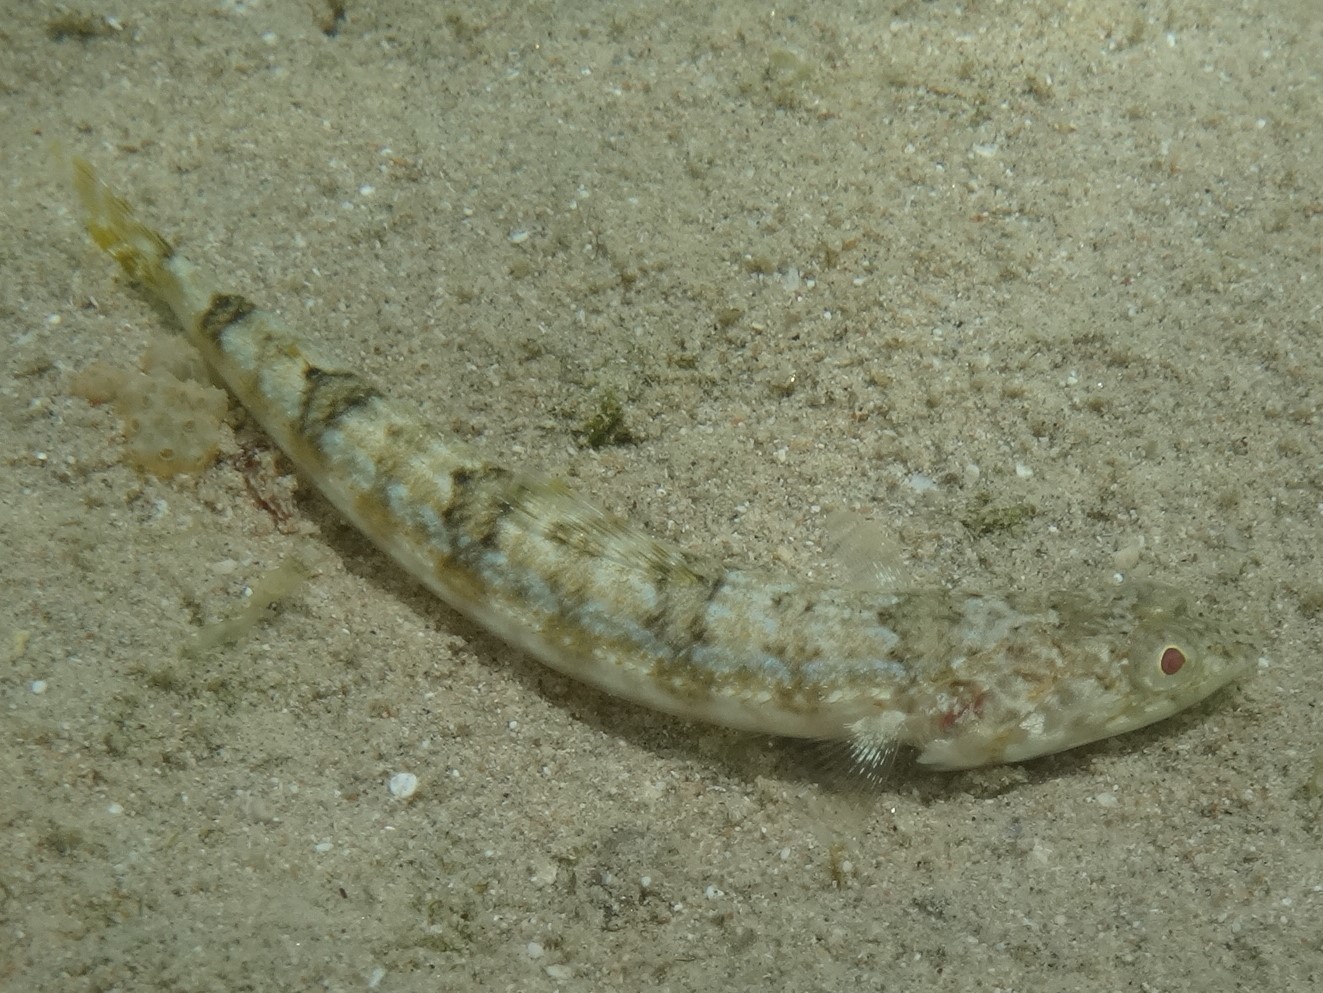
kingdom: Animalia
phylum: Chordata
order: Aulopiformes
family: Synodontidae
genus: Synodus
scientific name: Synodus variegatus
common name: Variegated lizardfish
